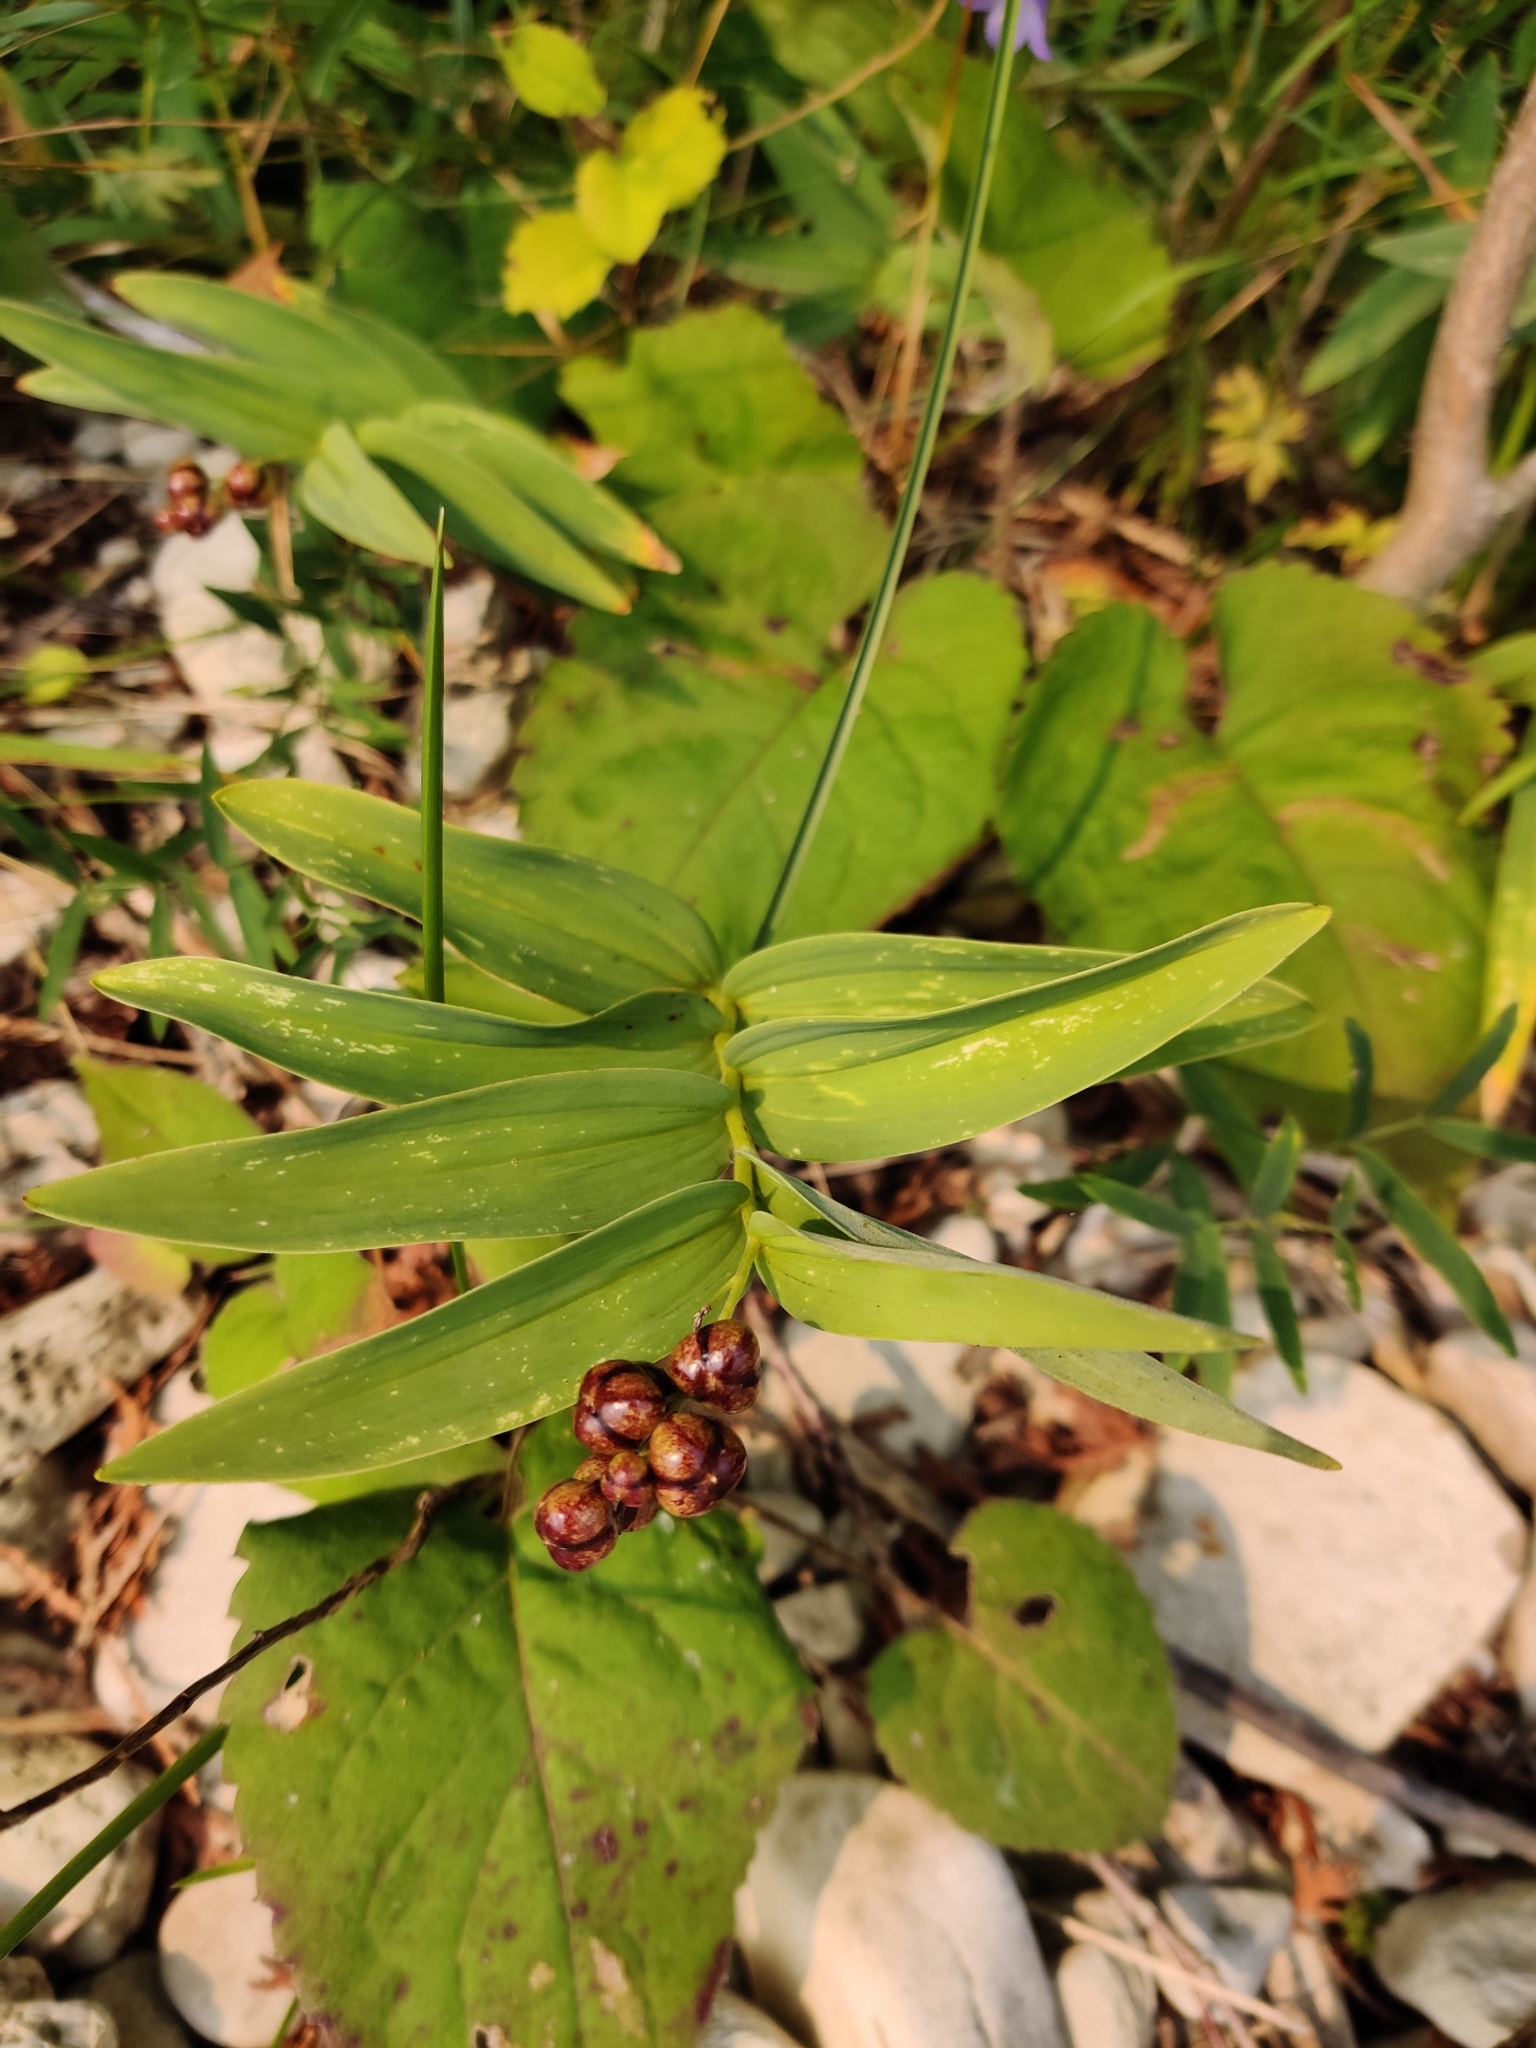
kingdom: Plantae
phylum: Tracheophyta
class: Liliopsida
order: Asparagales
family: Asparagaceae
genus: Maianthemum
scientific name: Maianthemum stellatum
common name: Little false solomon's seal
